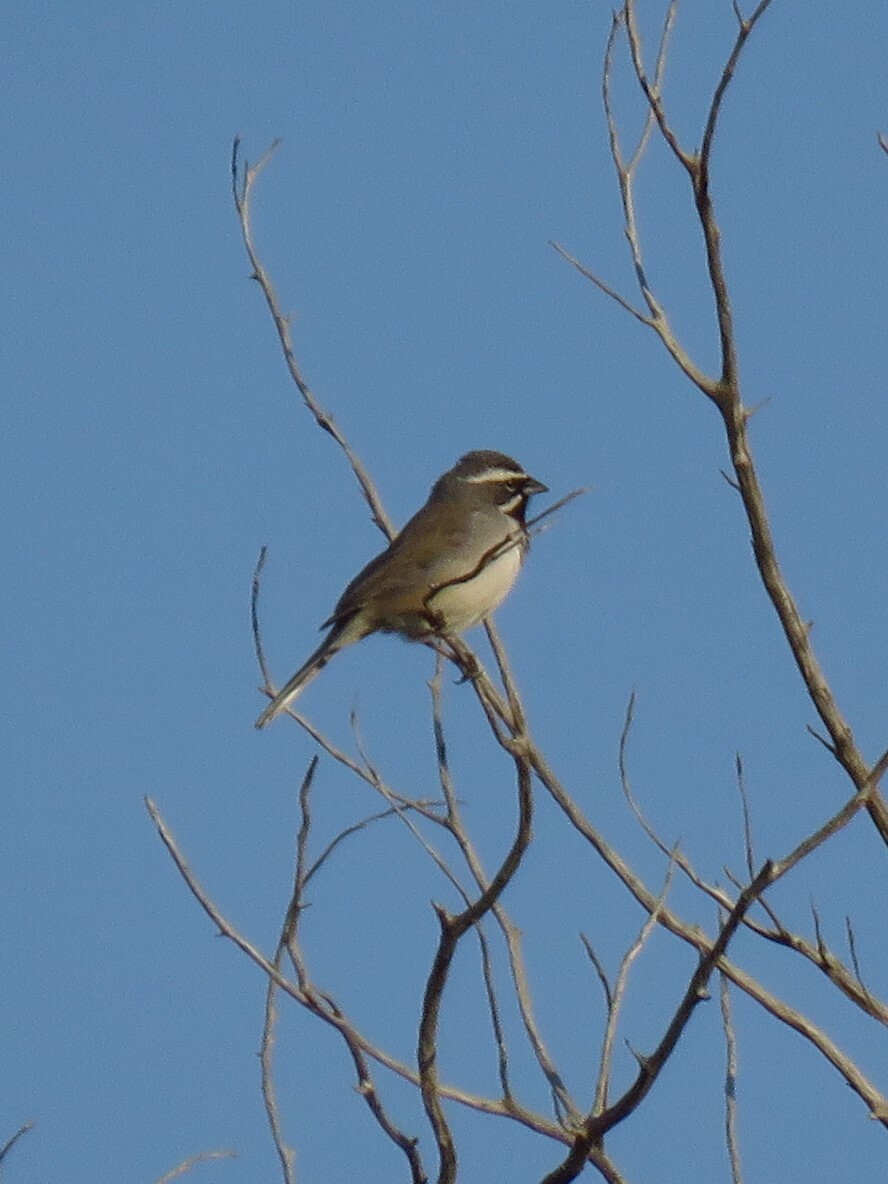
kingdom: Animalia
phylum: Chordata
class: Aves
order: Passeriformes
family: Passerellidae
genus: Amphispiza
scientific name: Amphispiza bilineata
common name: Black-throated sparrow
